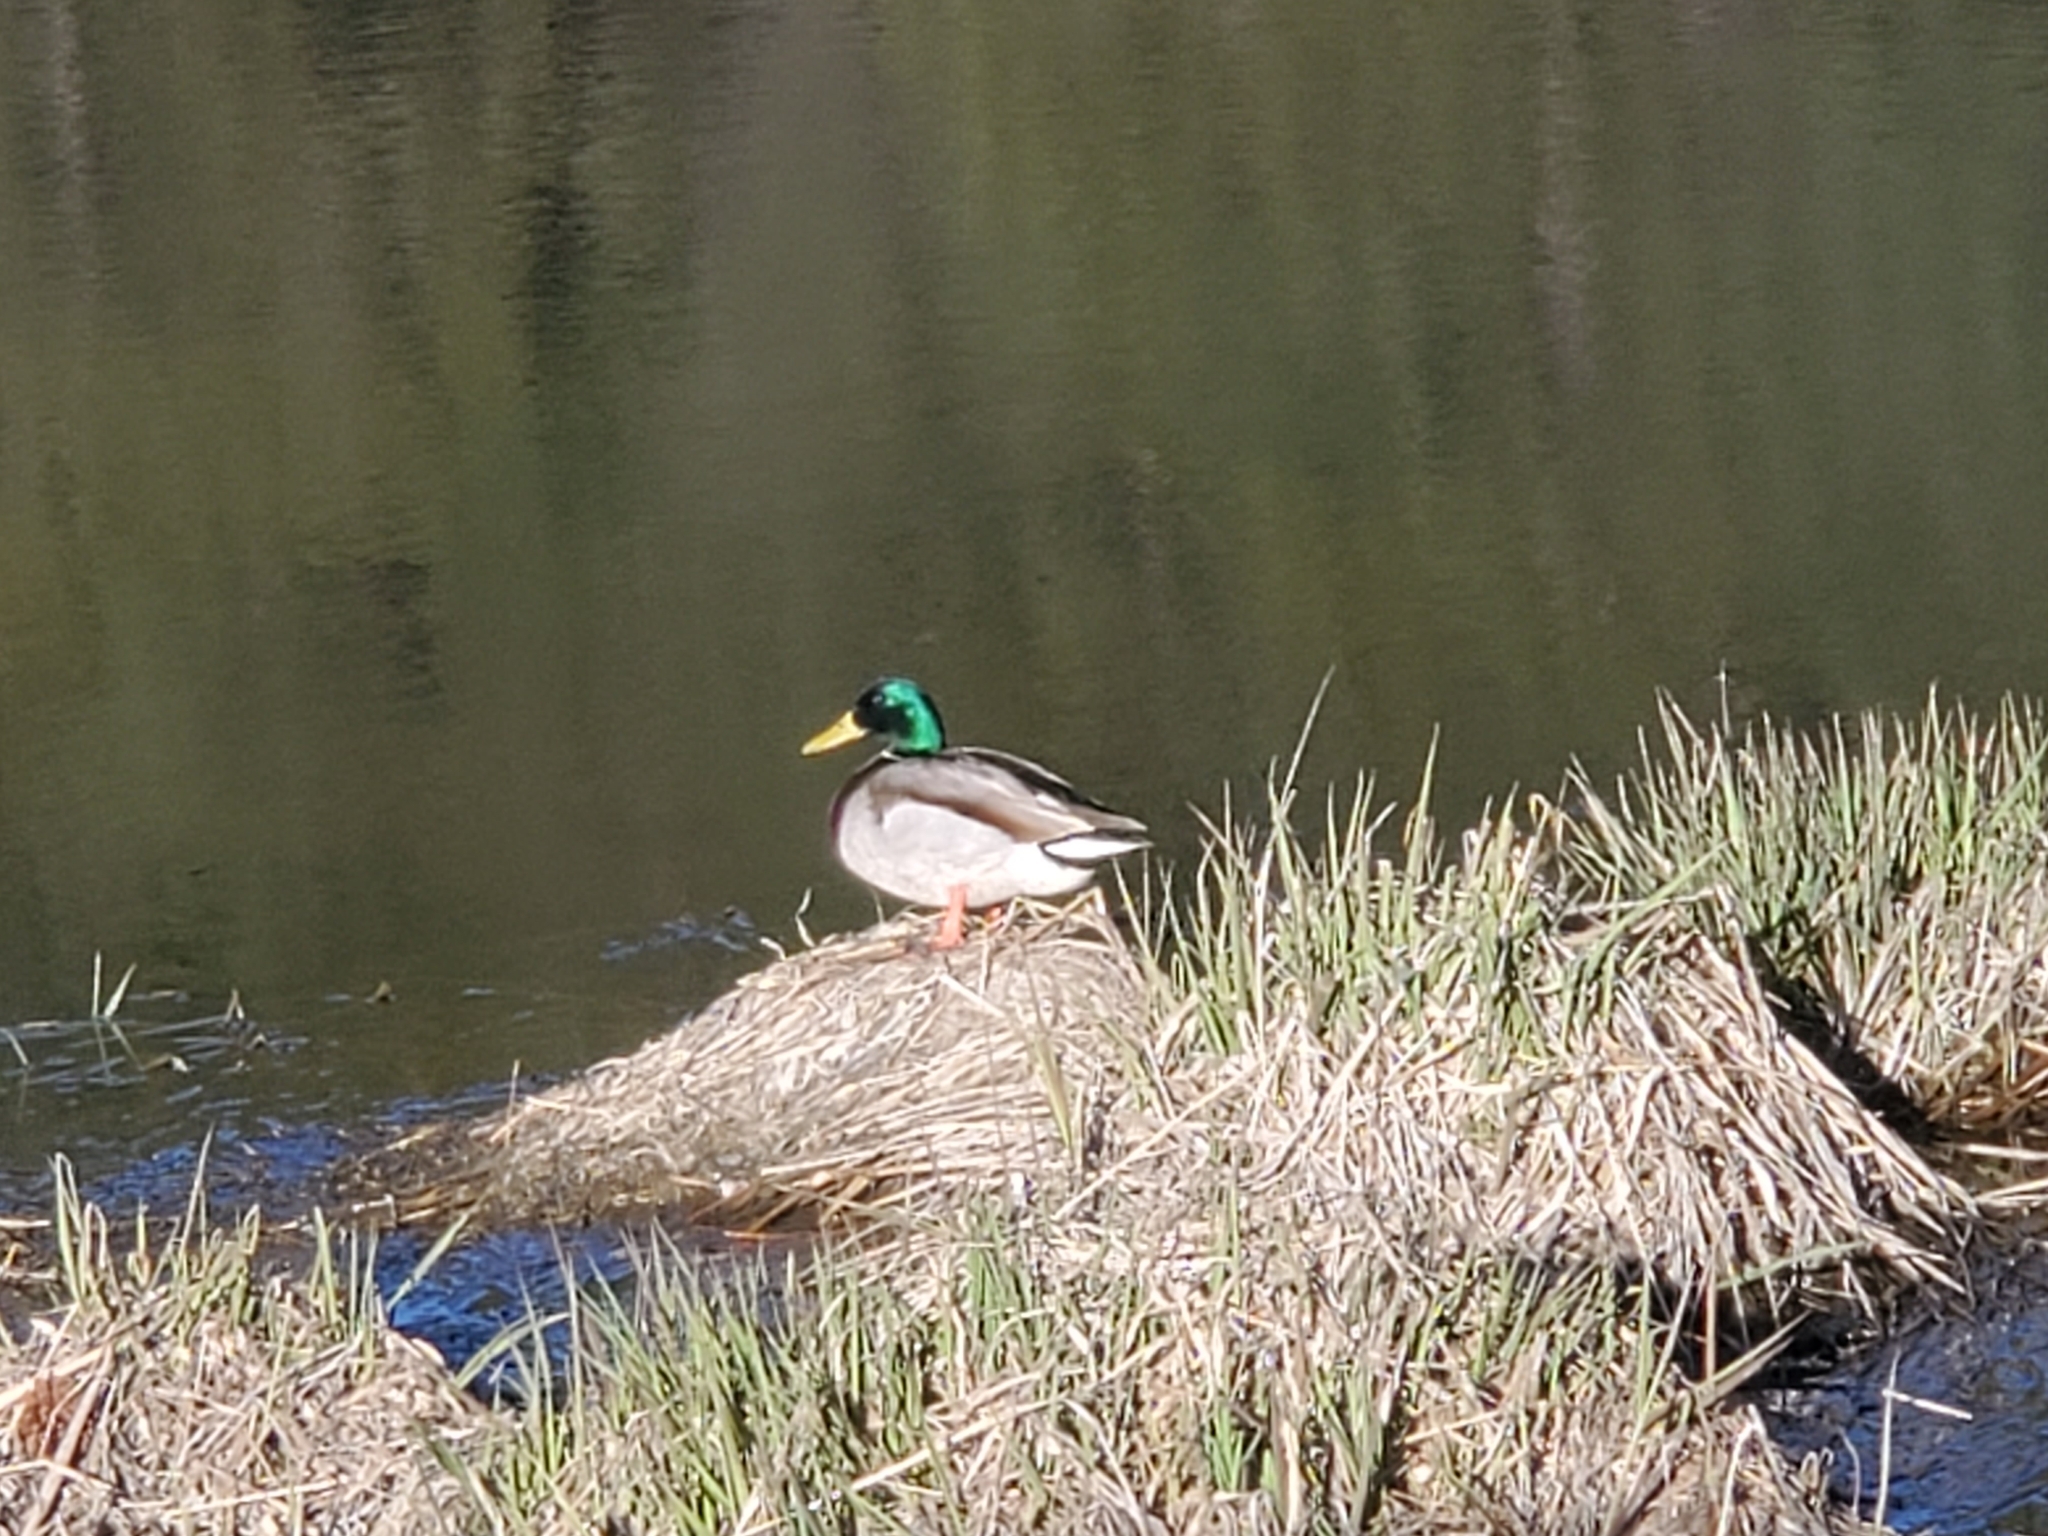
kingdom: Animalia
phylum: Chordata
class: Aves
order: Anseriformes
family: Anatidae
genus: Anas
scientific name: Anas platyrhynchos
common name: Mallard
